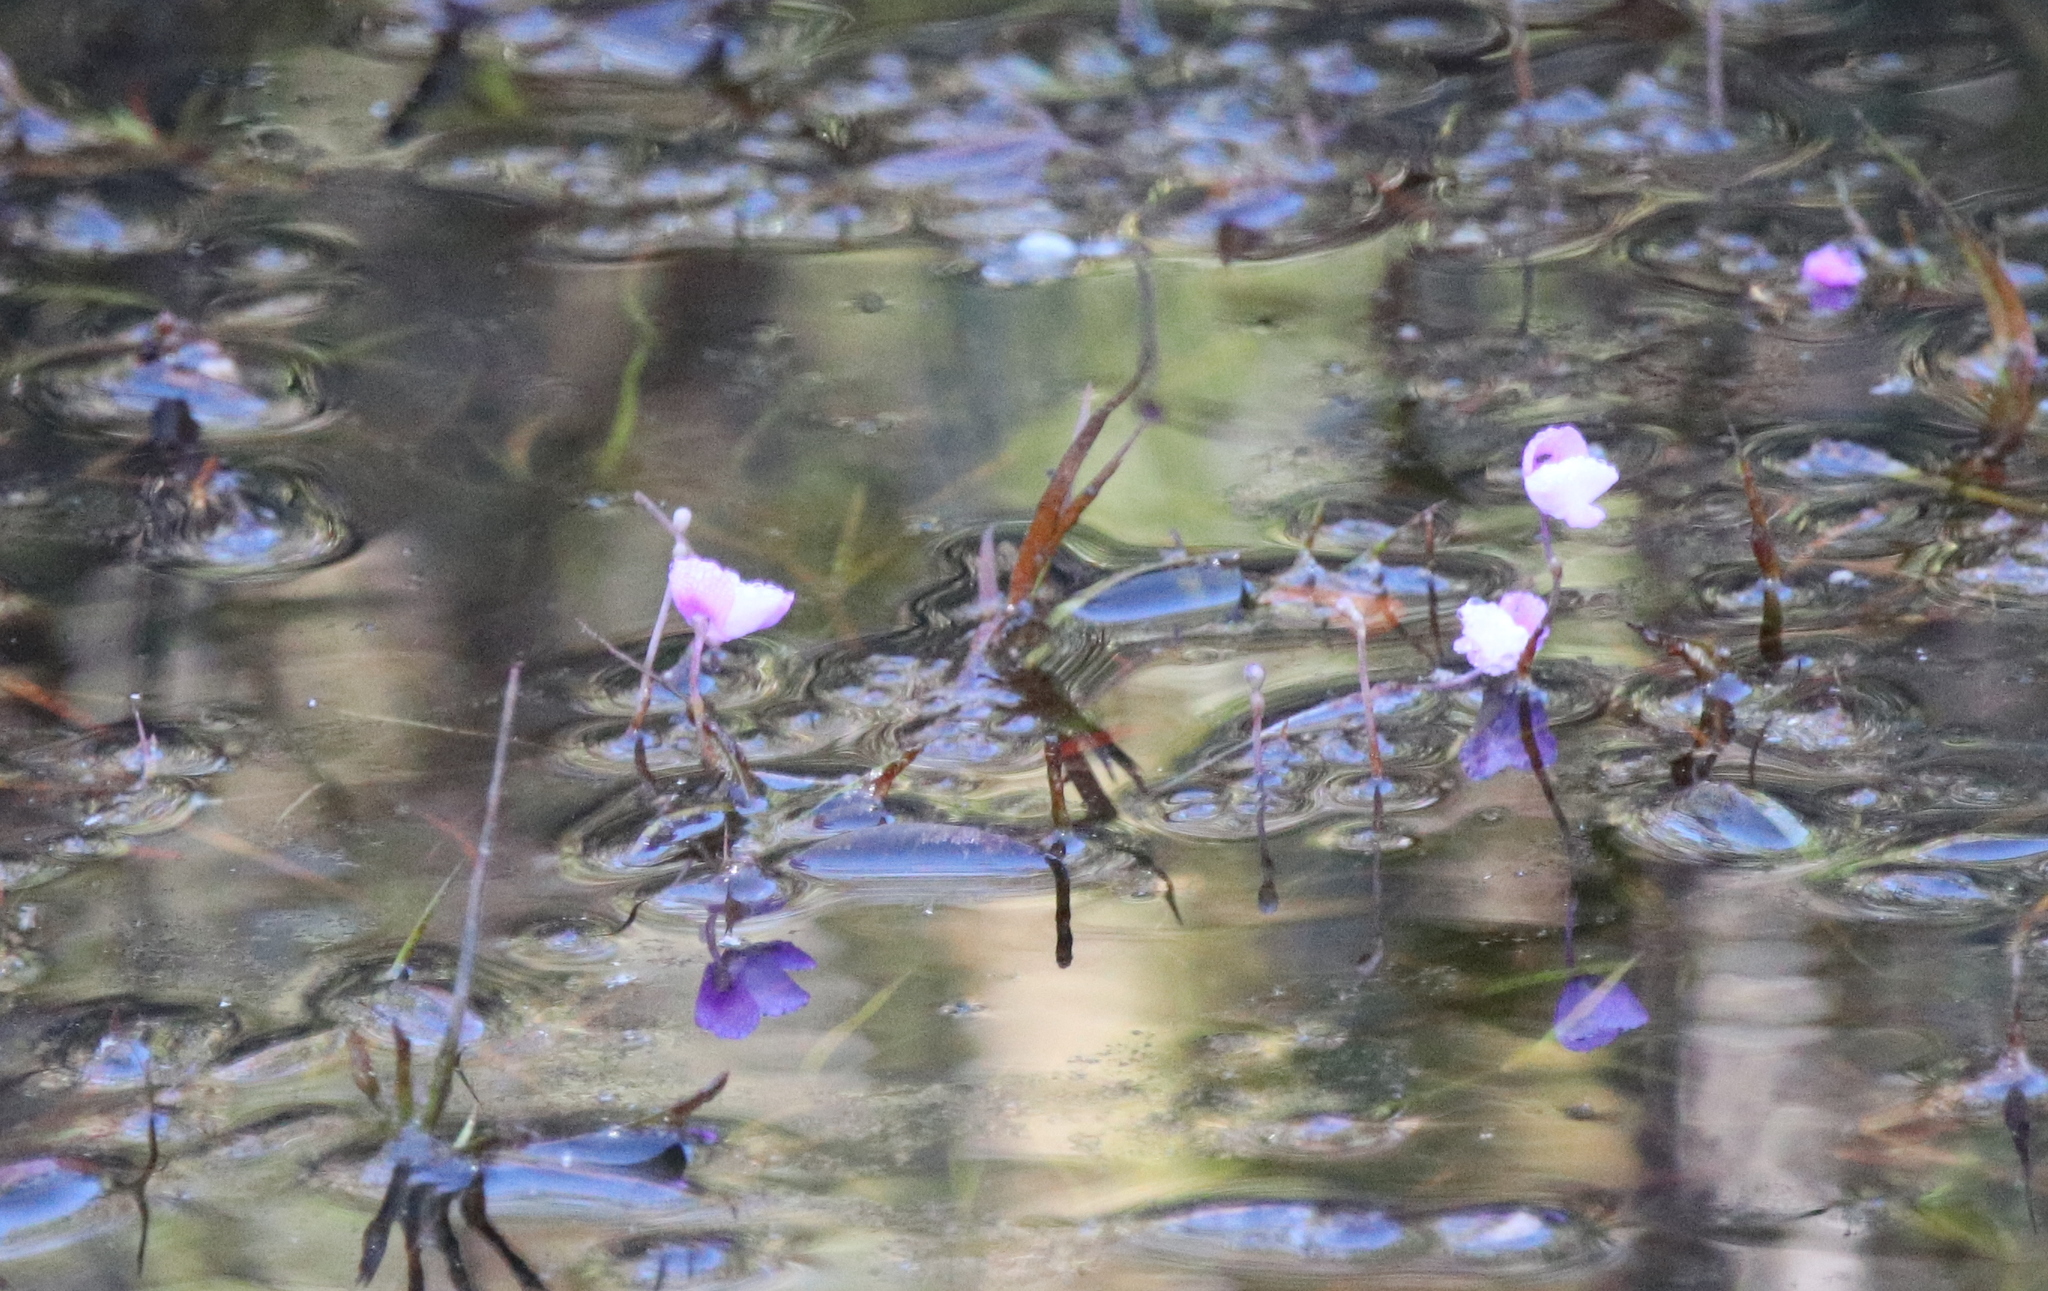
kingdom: Plantae
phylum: Tracheophyta
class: Magnoliopsida
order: Lamiales
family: Lentibulariaceae
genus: Utricularia
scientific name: Utricularia purpurea
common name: Eastern purple bladderwort
